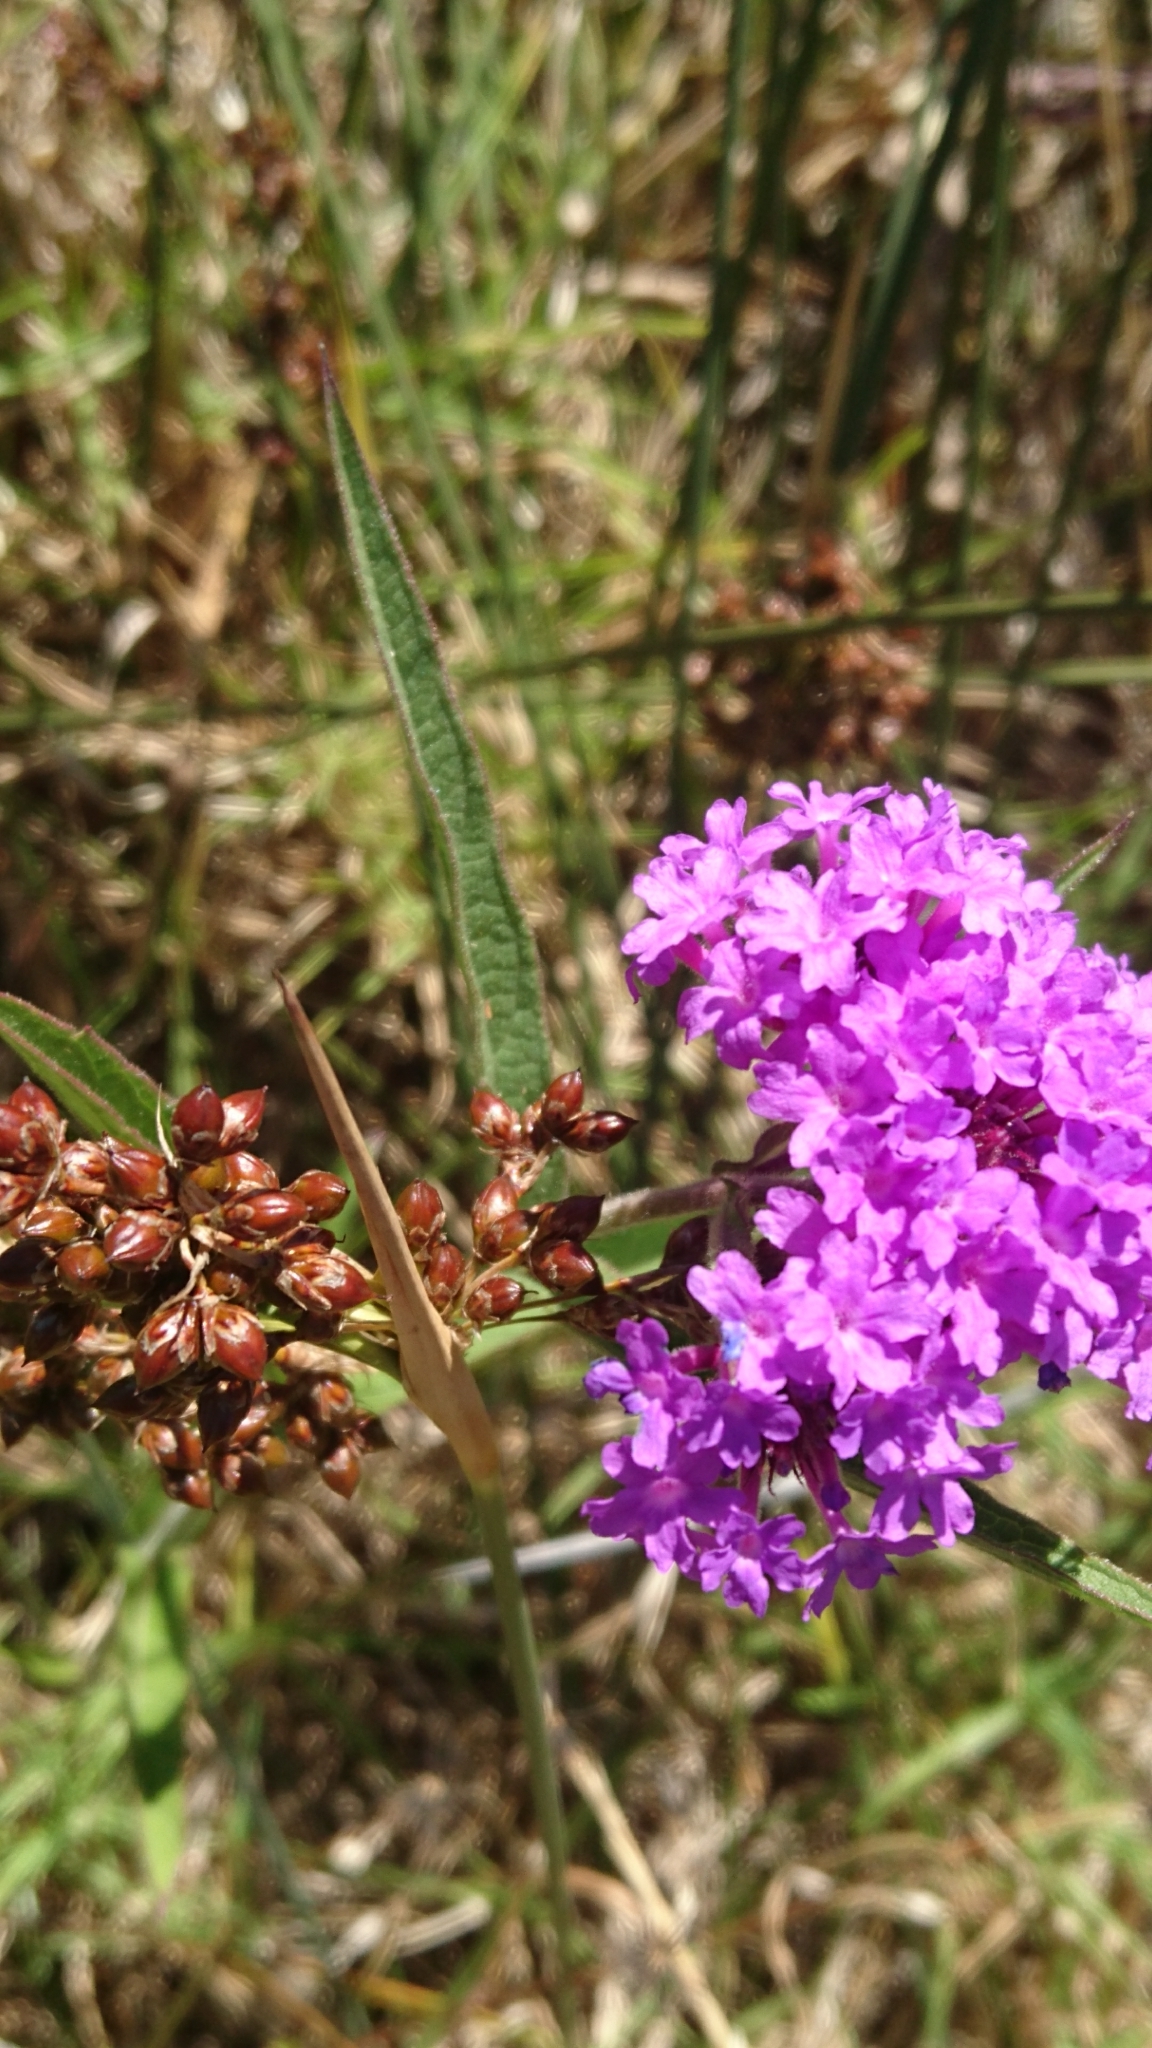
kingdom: Plantae
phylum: Tracheophyta
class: Magnoliopsida
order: Lamiales
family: Verbenaceae
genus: Verbena
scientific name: Verbena rigida
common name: Slender vervain
